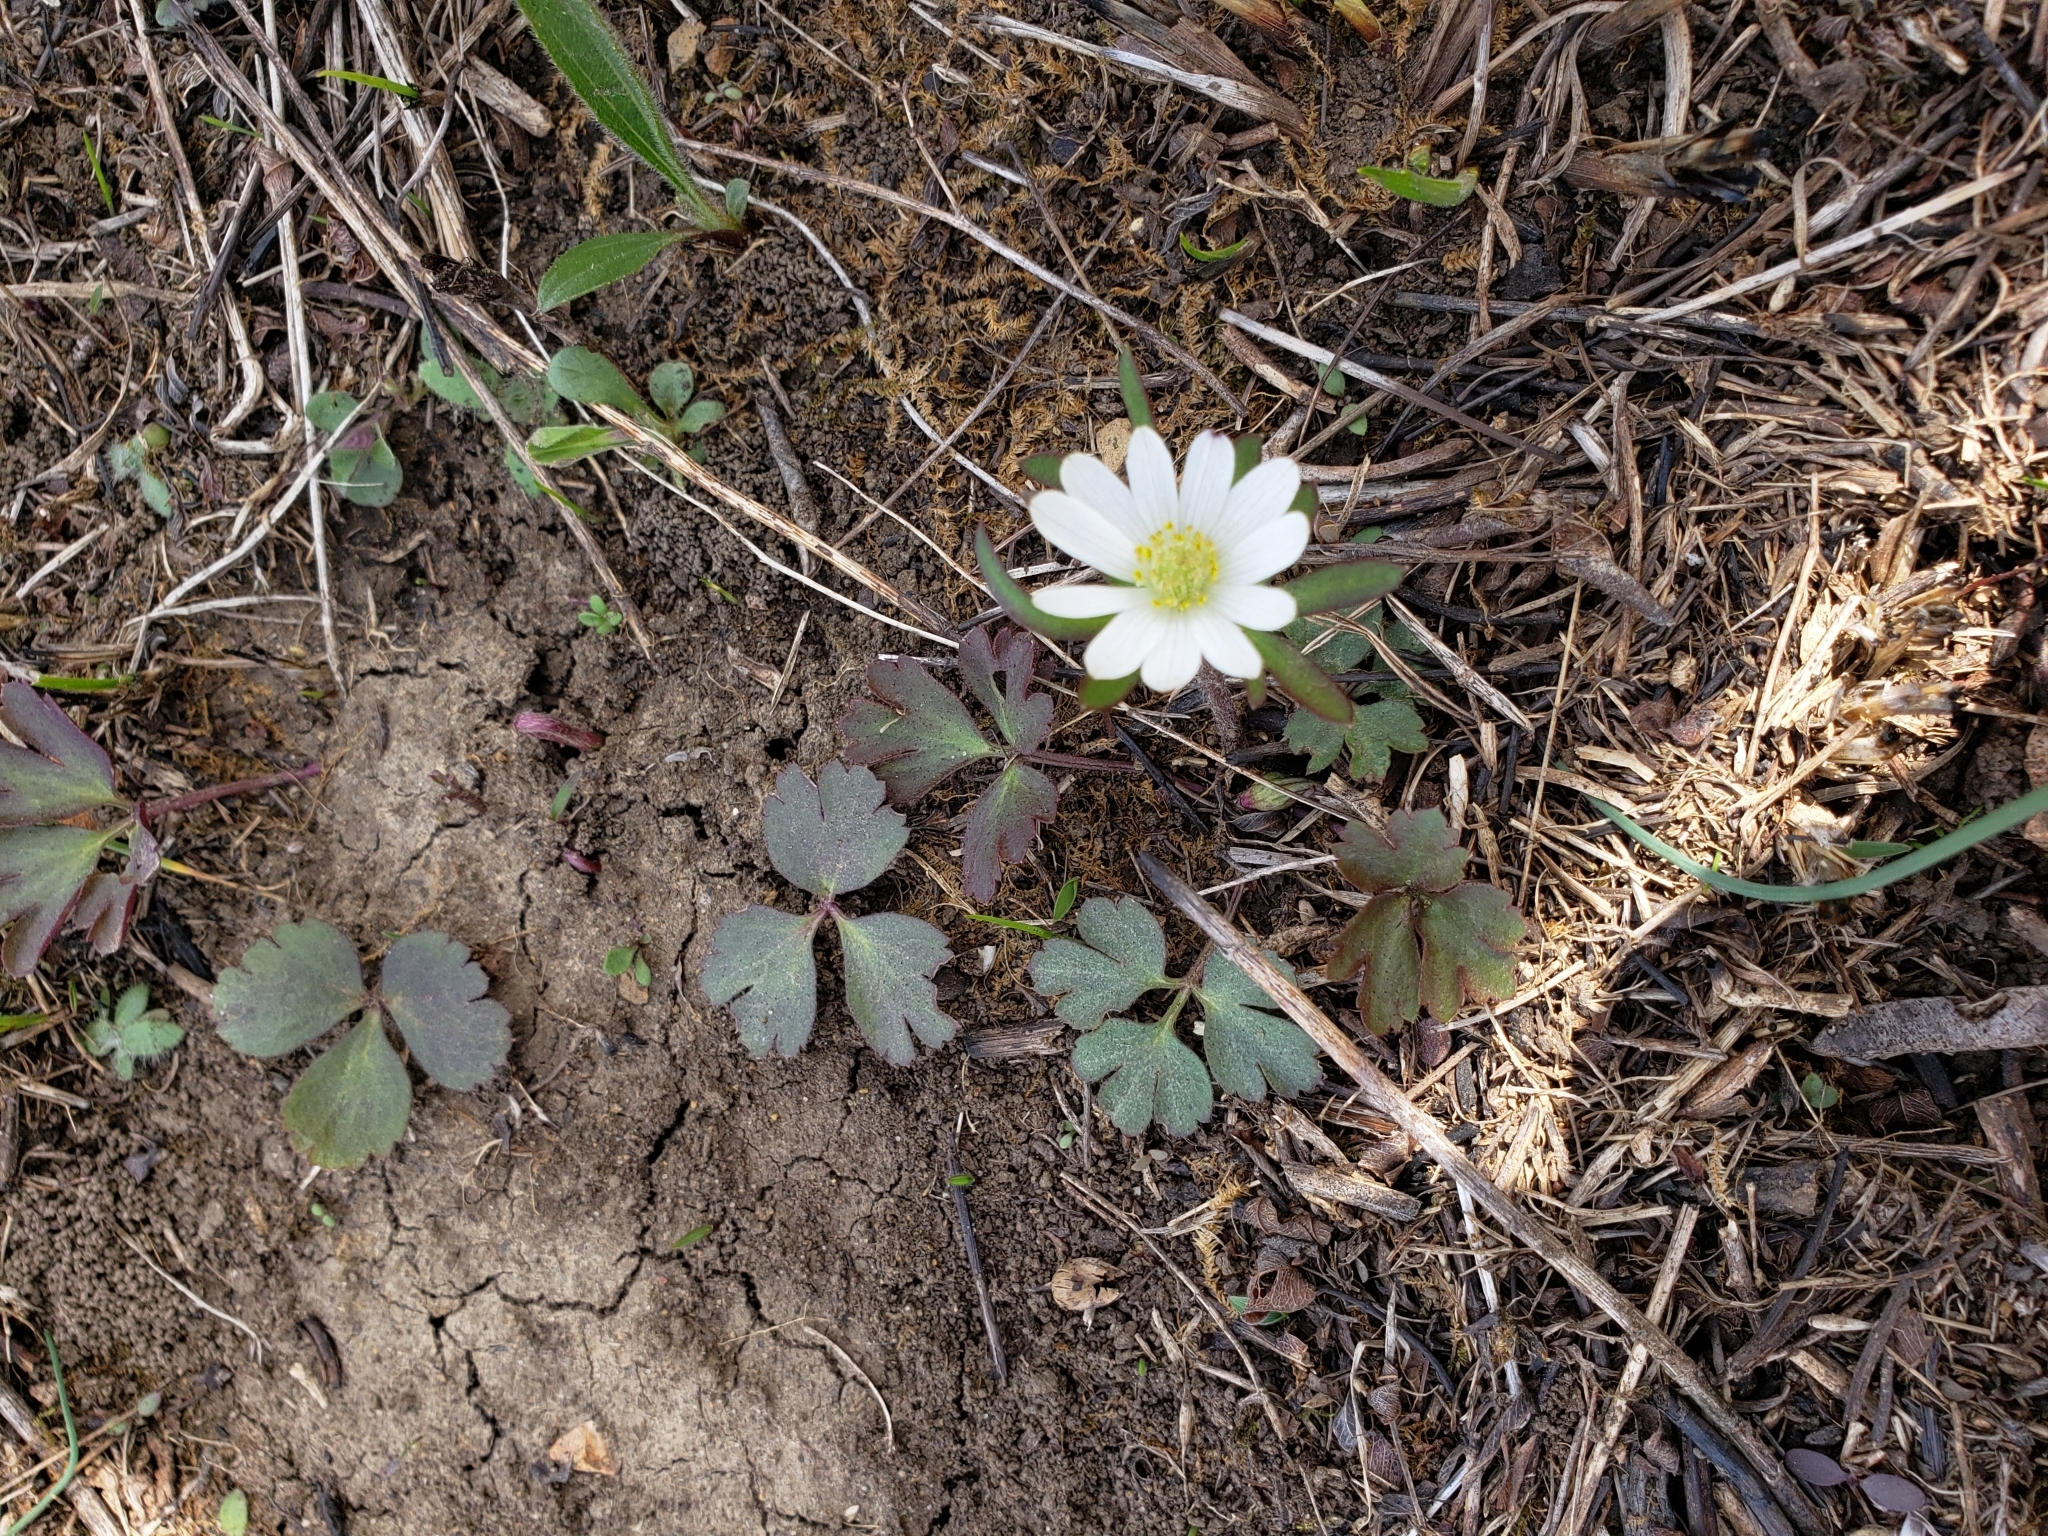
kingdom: Plantae
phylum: Tracheophyta
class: Magnoliopsida
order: Ranunculales
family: Ranunculaceae
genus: Anemone
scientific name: Anemone berlandieri
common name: Ten-petal anemone
